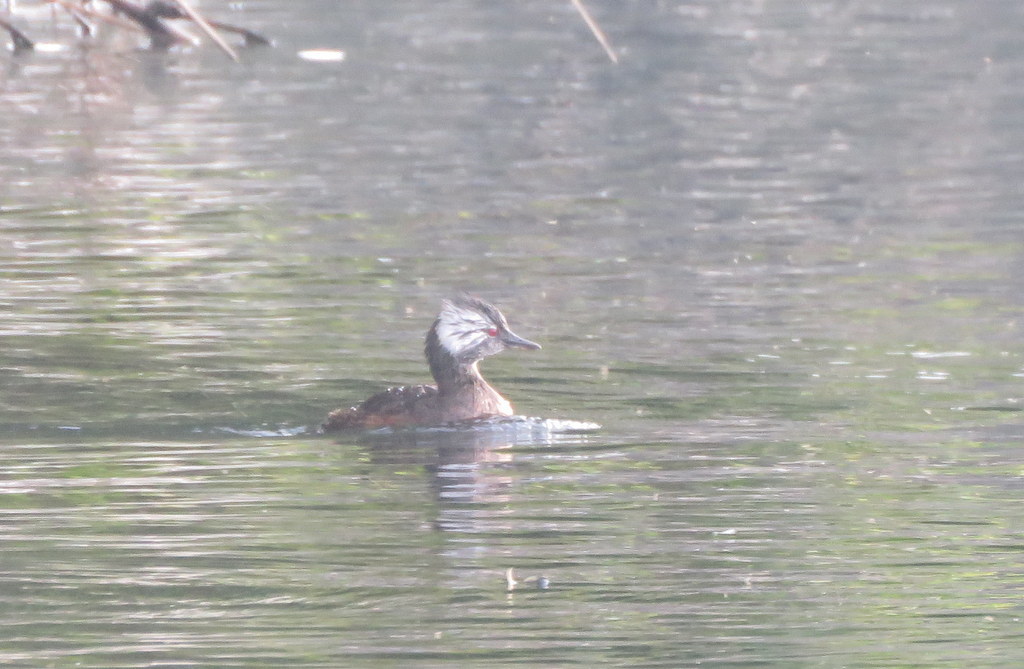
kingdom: Animalia
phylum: Chordata
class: Aves
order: Podicipediformes
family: Podicipedidae
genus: Rollandia
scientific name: Rollandia rolland
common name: White-tufted grebe
